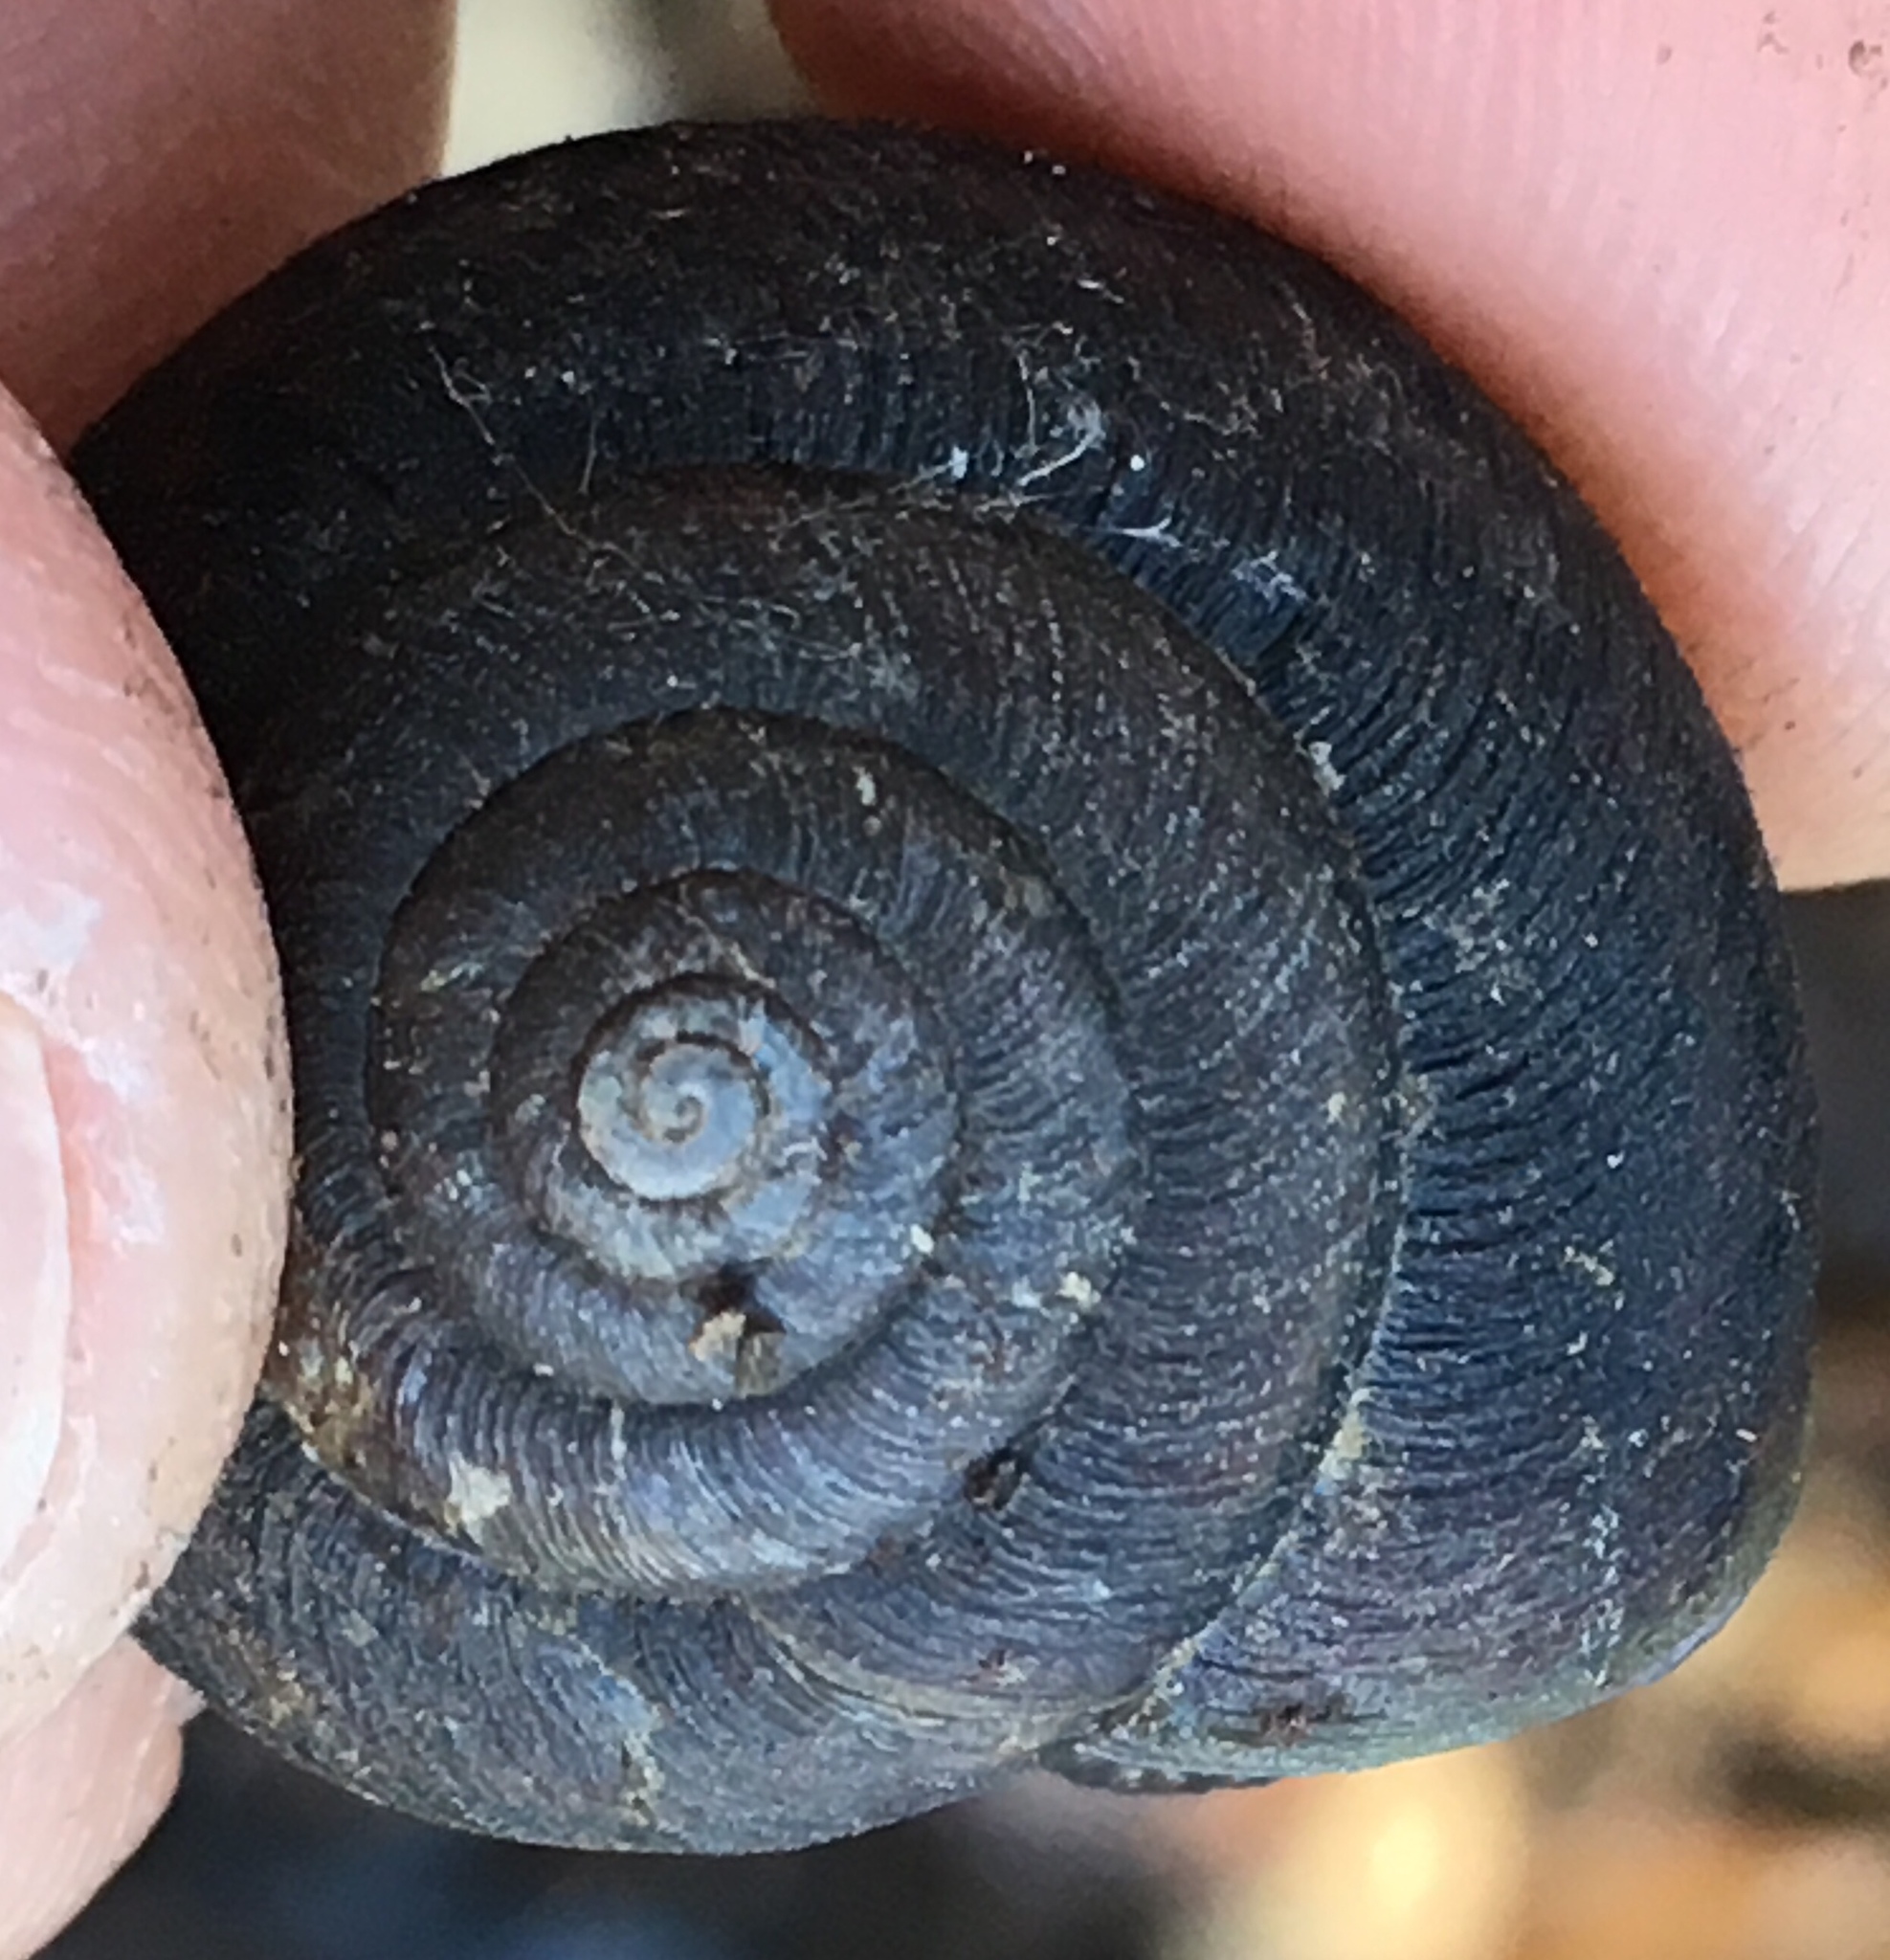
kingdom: Animalia
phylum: Mollusca
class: Gastropoda
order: Stylommatophora
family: Xanthonychidae
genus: Helminthoglypta
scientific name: Helminthoglypta sanctaecrucis
